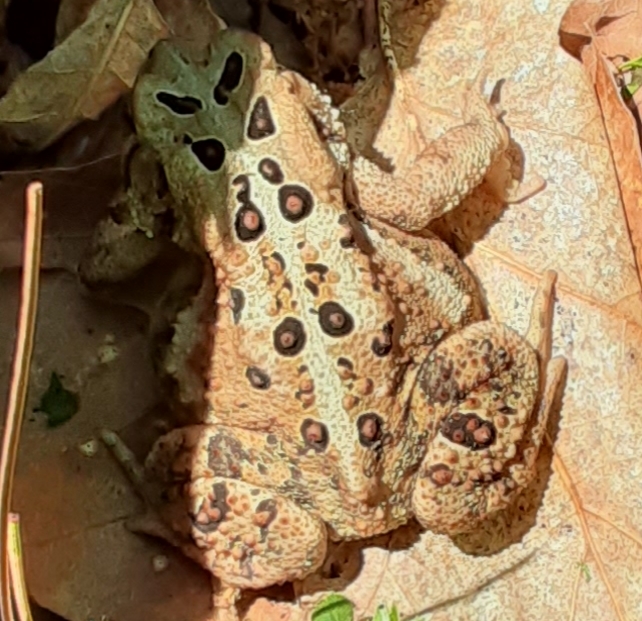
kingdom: Animalia
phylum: Chordata
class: Amphibia
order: Anura
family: Bufonidae
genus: Anaxyrus
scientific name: Anaxyrus americanus
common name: American toad
